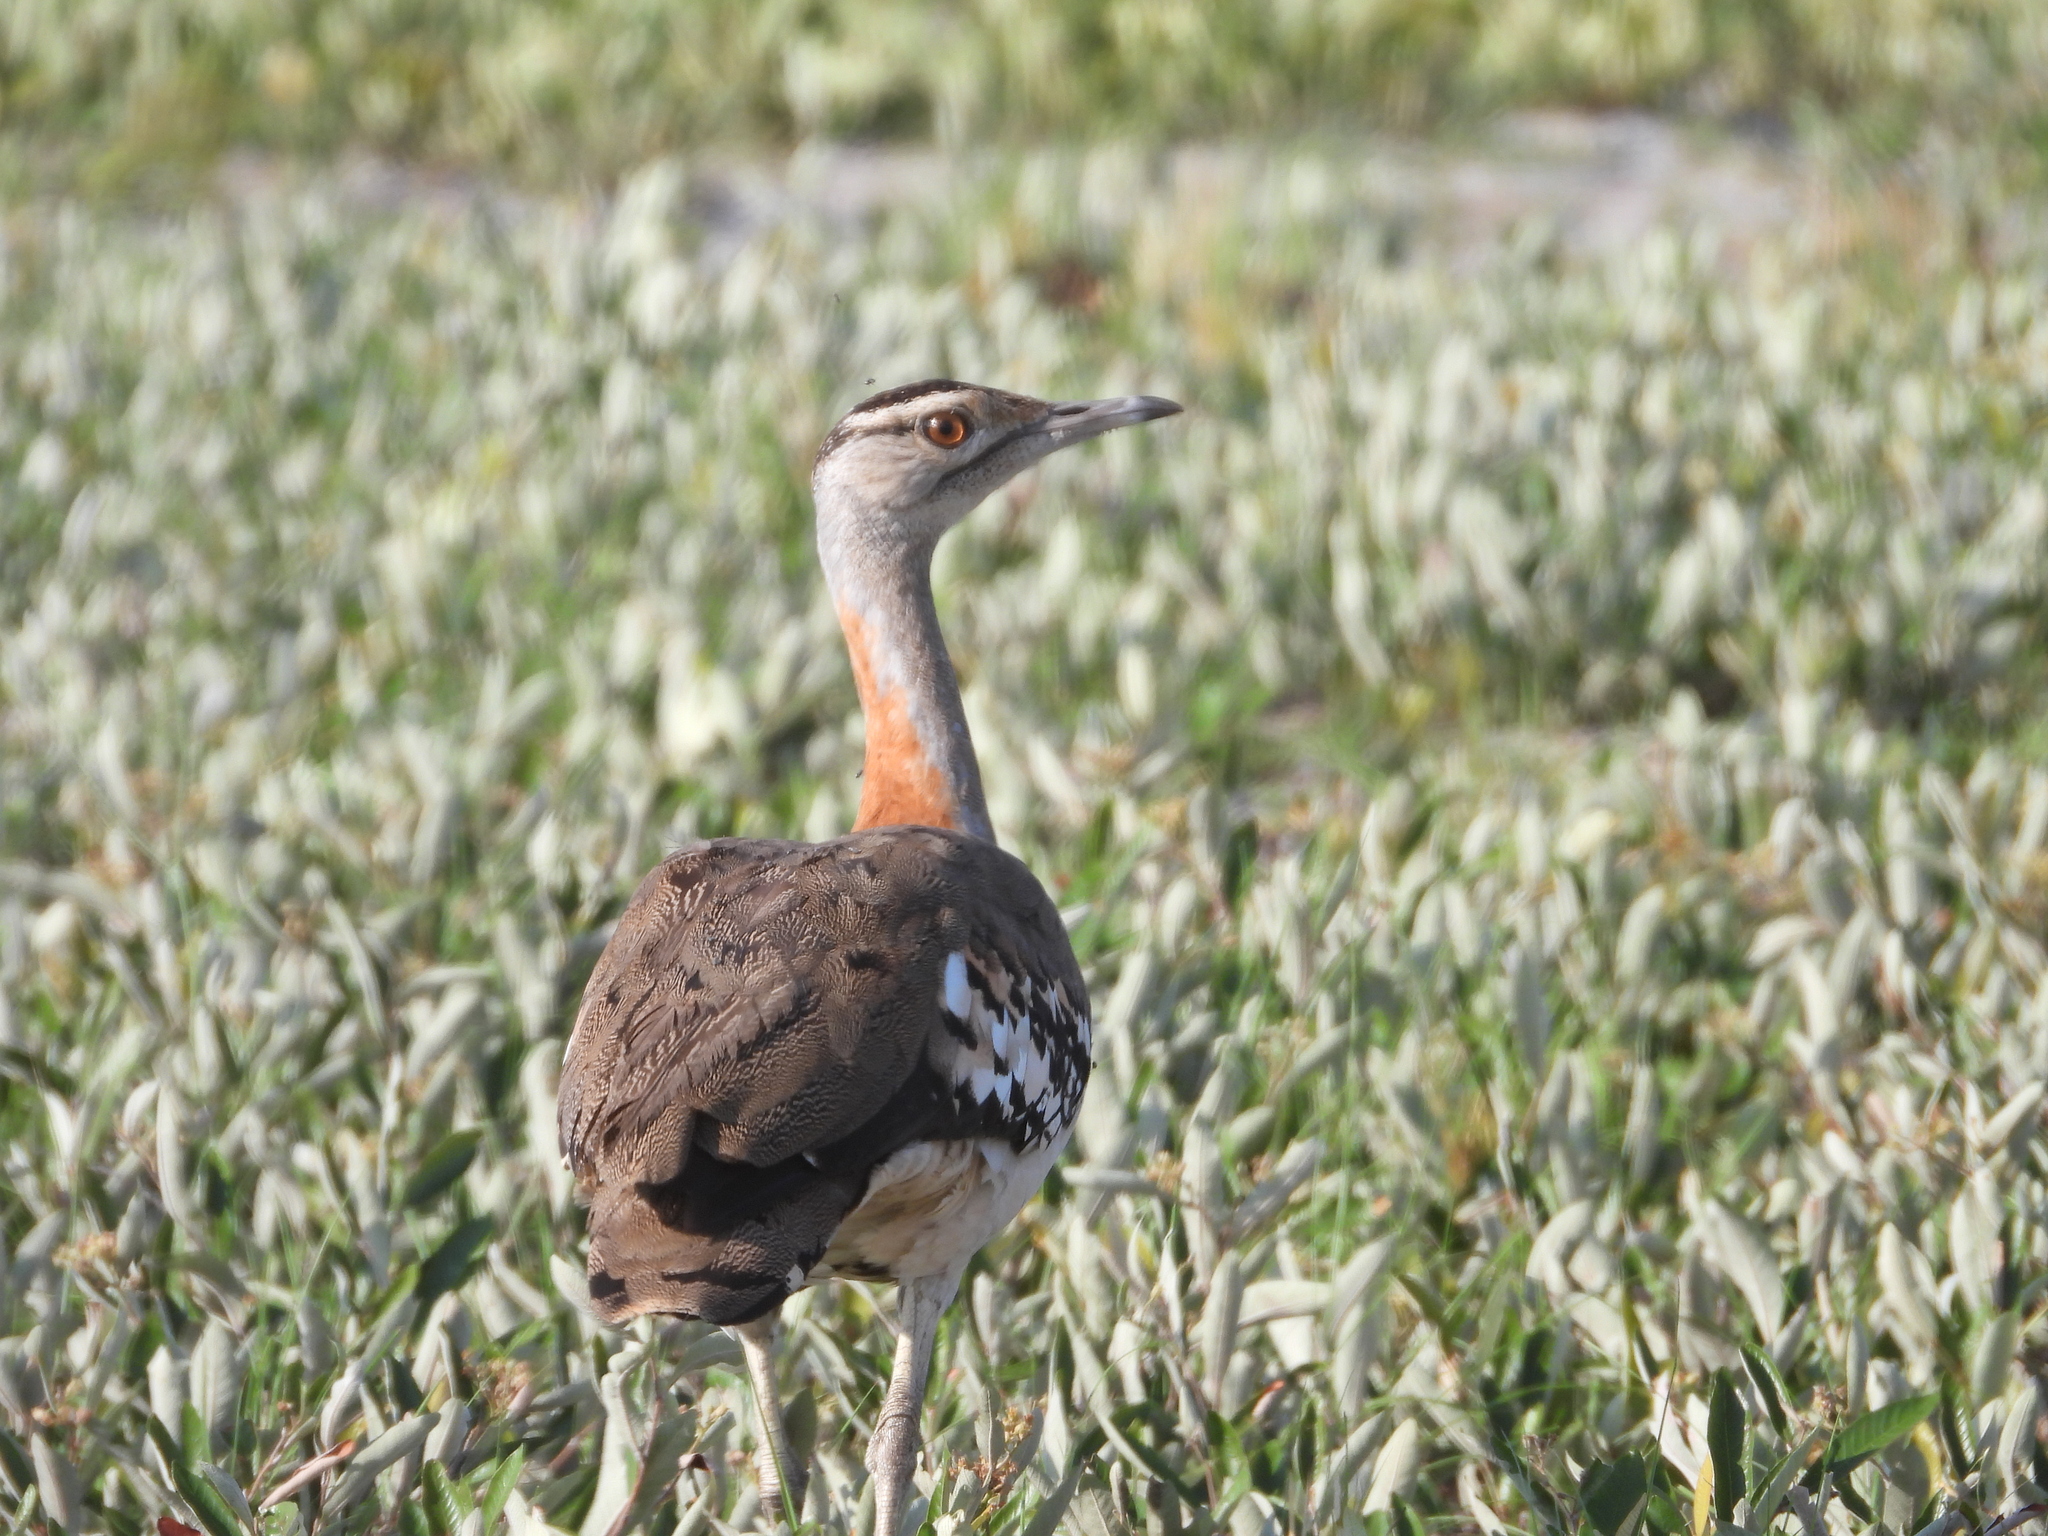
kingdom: Animalia
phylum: Chordata
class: Aves
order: Otidiformes
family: Otididae
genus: Neotis
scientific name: Neotis denhami
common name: Denham's bustard
